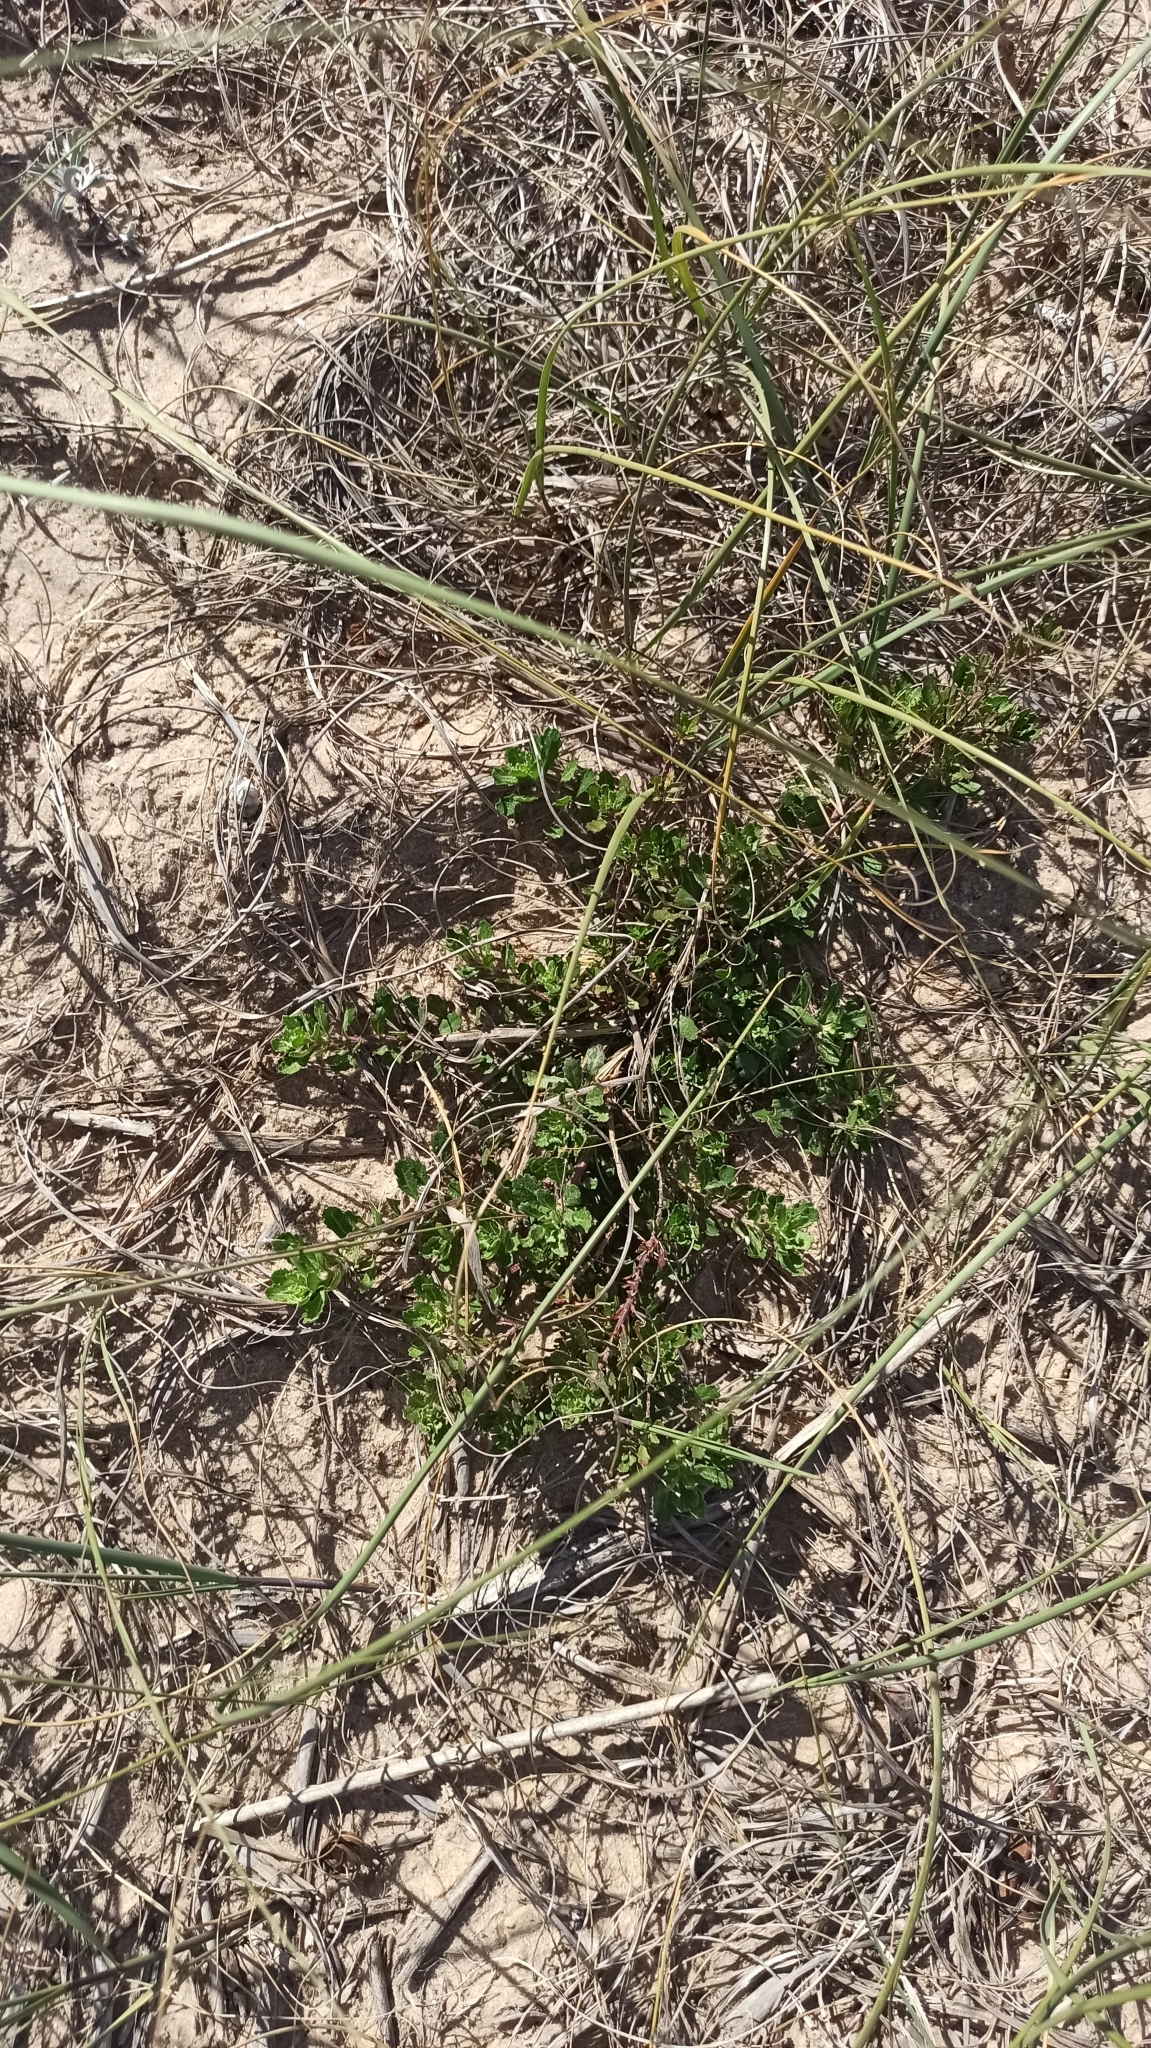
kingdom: Plantae
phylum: Tracheophyta
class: Magnoliopsida
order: Caryophyllales
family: Amaranthaceae
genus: Dysphania
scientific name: Dysphania retusa
